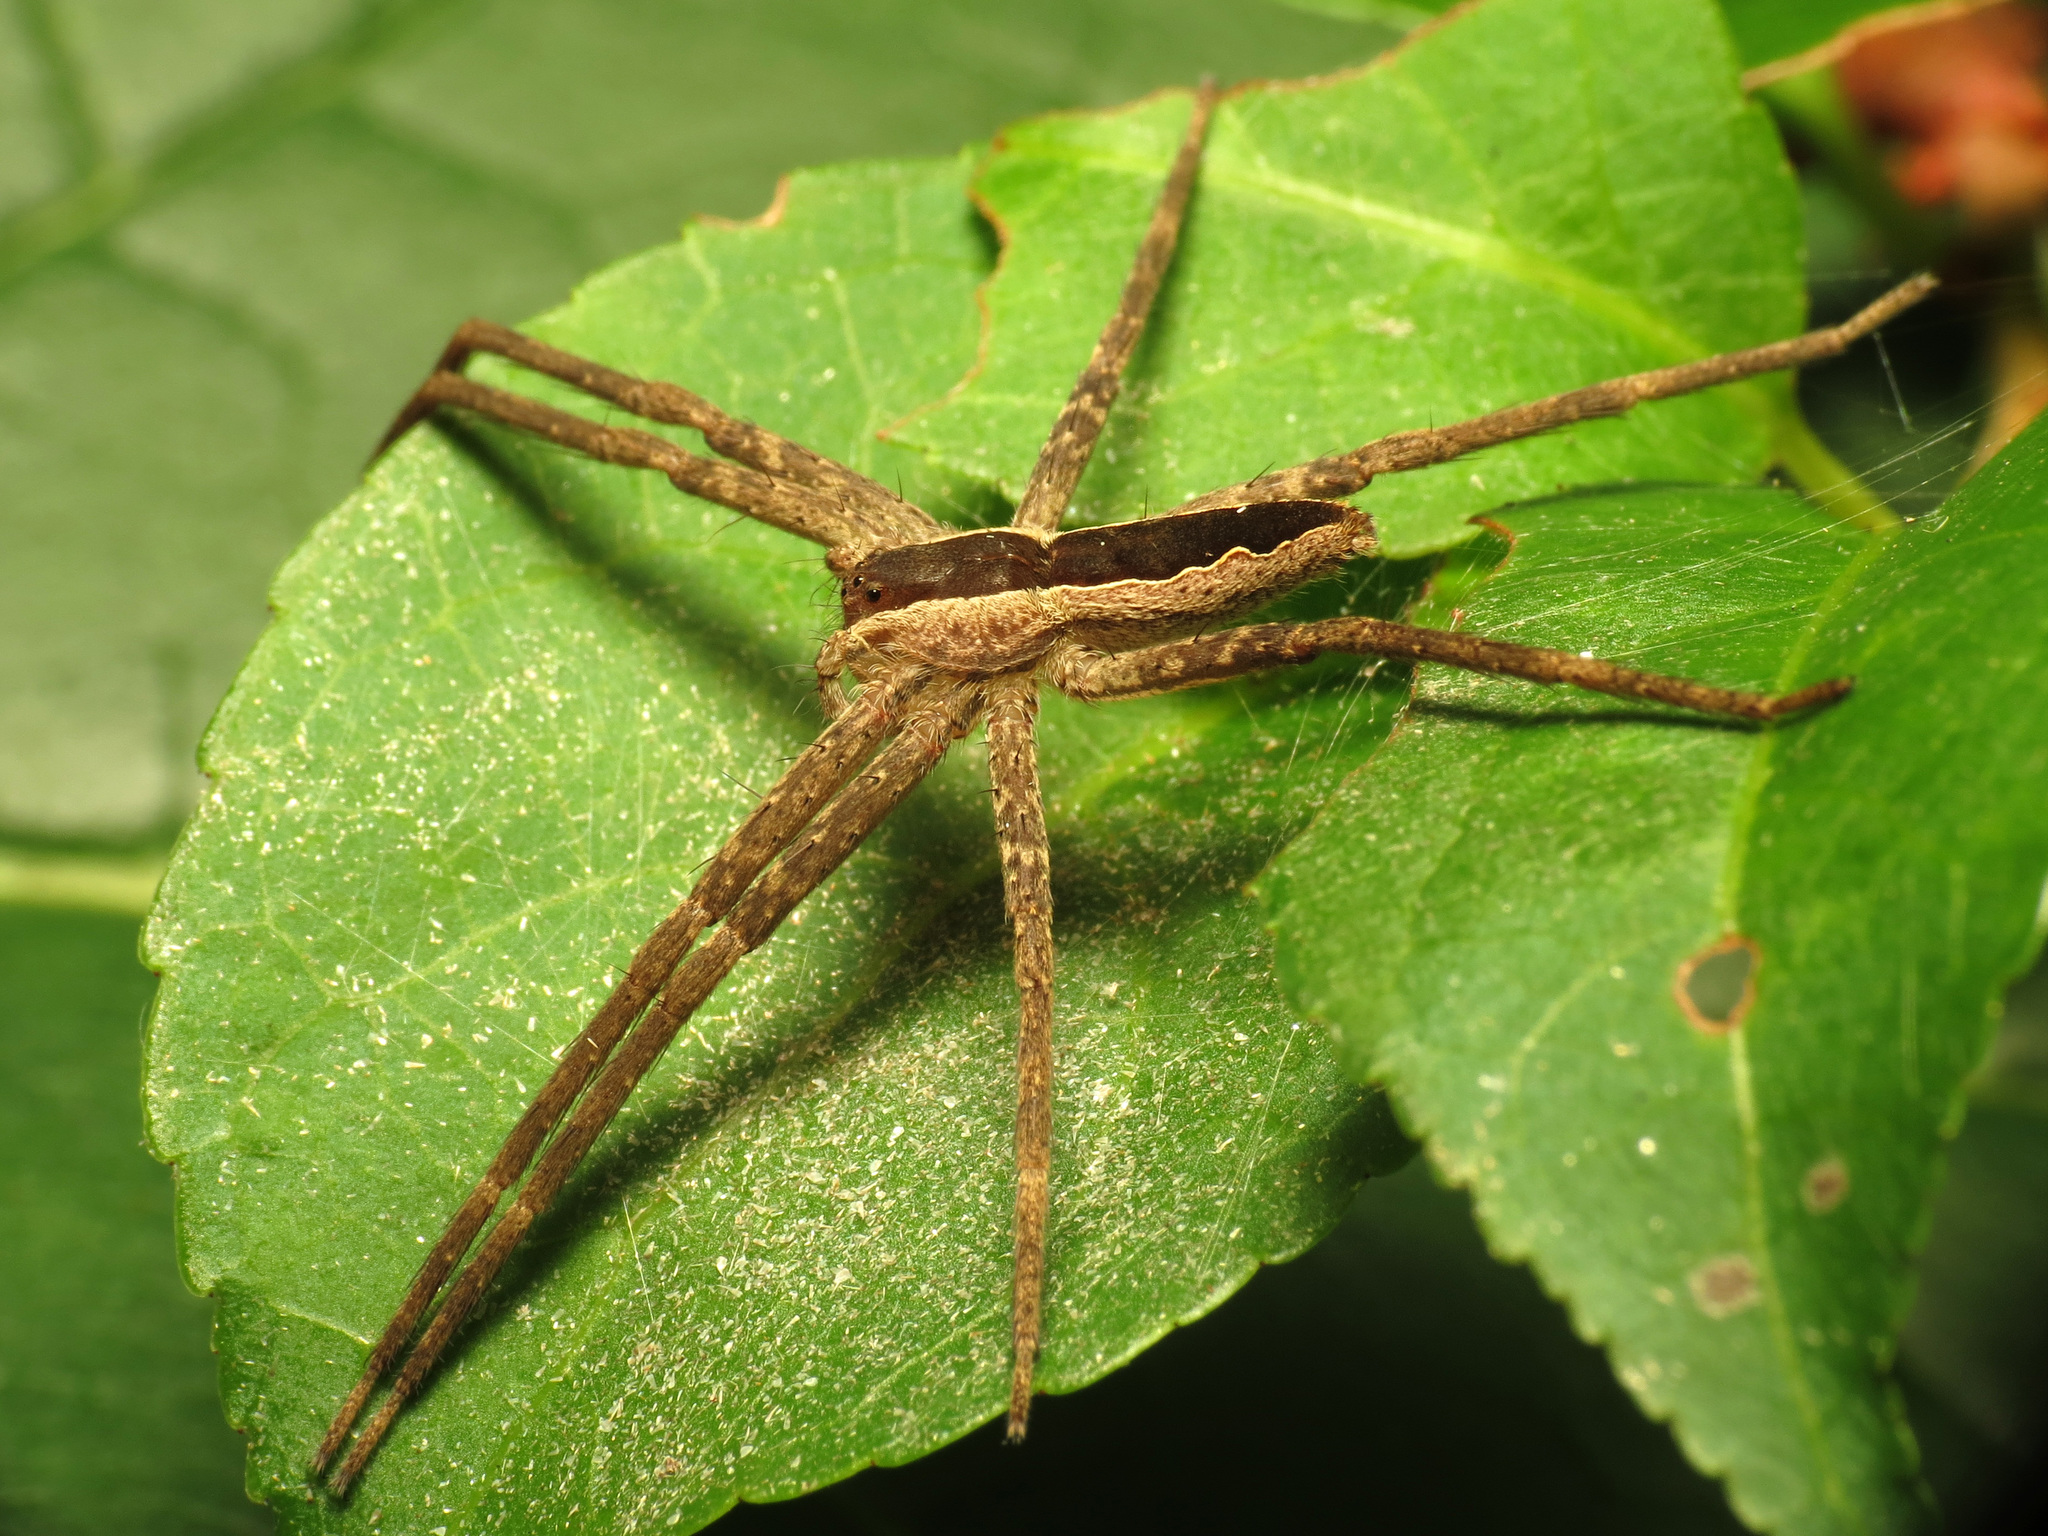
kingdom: Animalia
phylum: Arthropoda
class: Arachnida
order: Araneae
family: Pisauridae
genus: Pisaurina
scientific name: Pisaurina mira
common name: American nursery web spider
